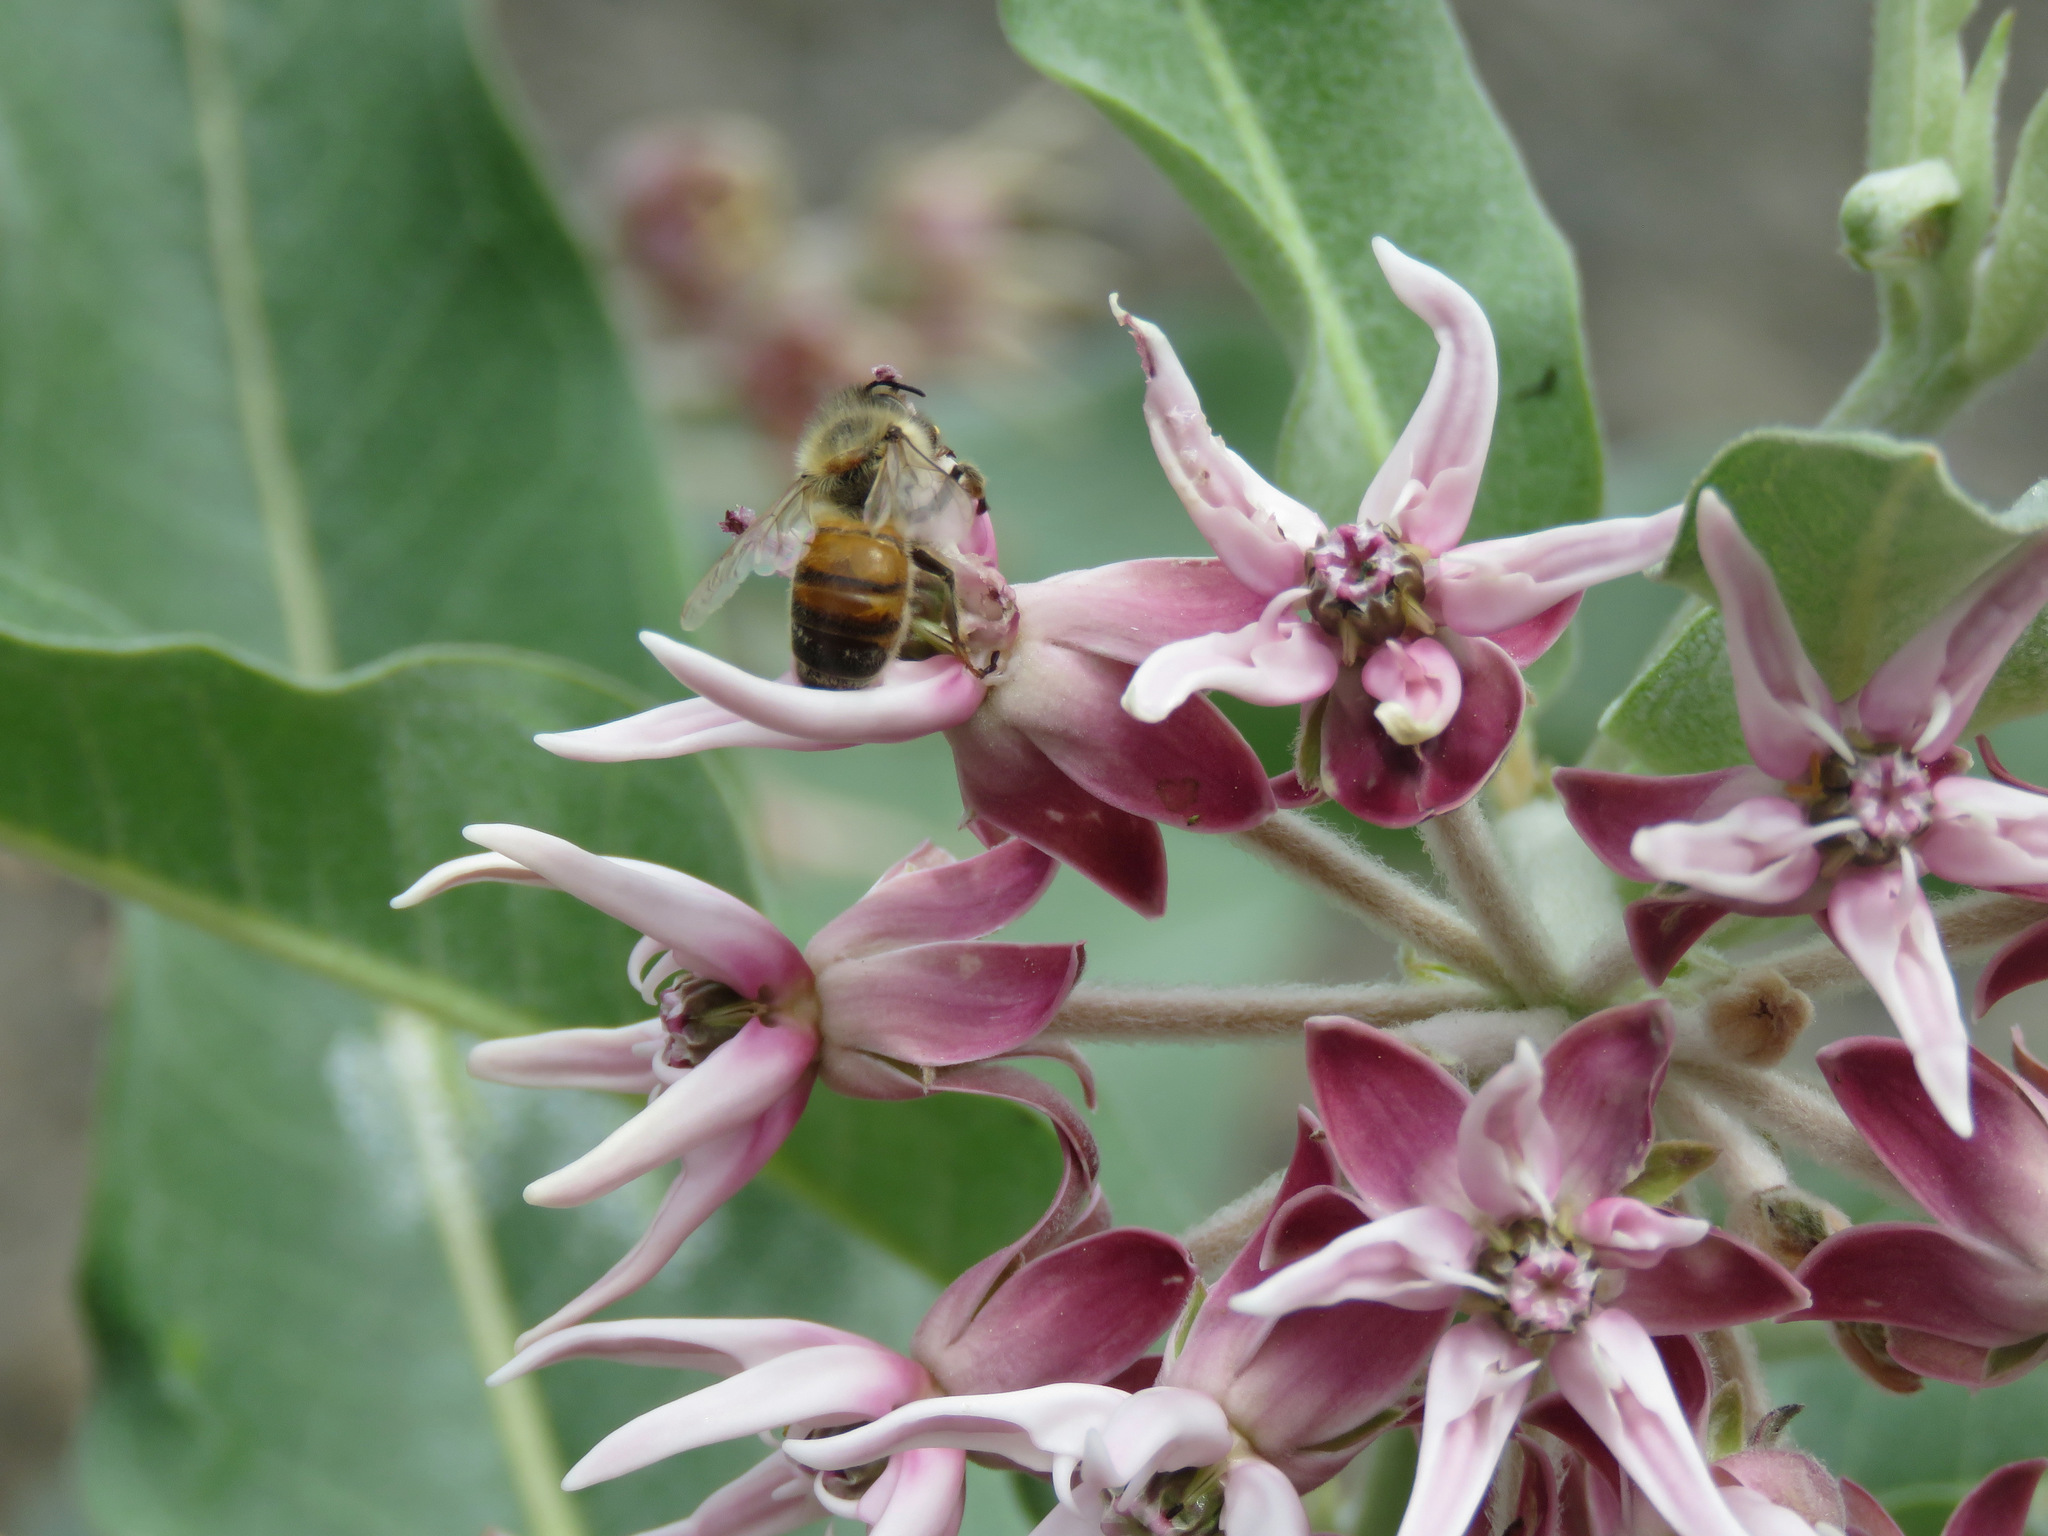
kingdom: Animalia
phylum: Arthropoda
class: Insecta
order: Hymenoptera
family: Apidae
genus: Apis
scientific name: Apis mellifera
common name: Honey bee
